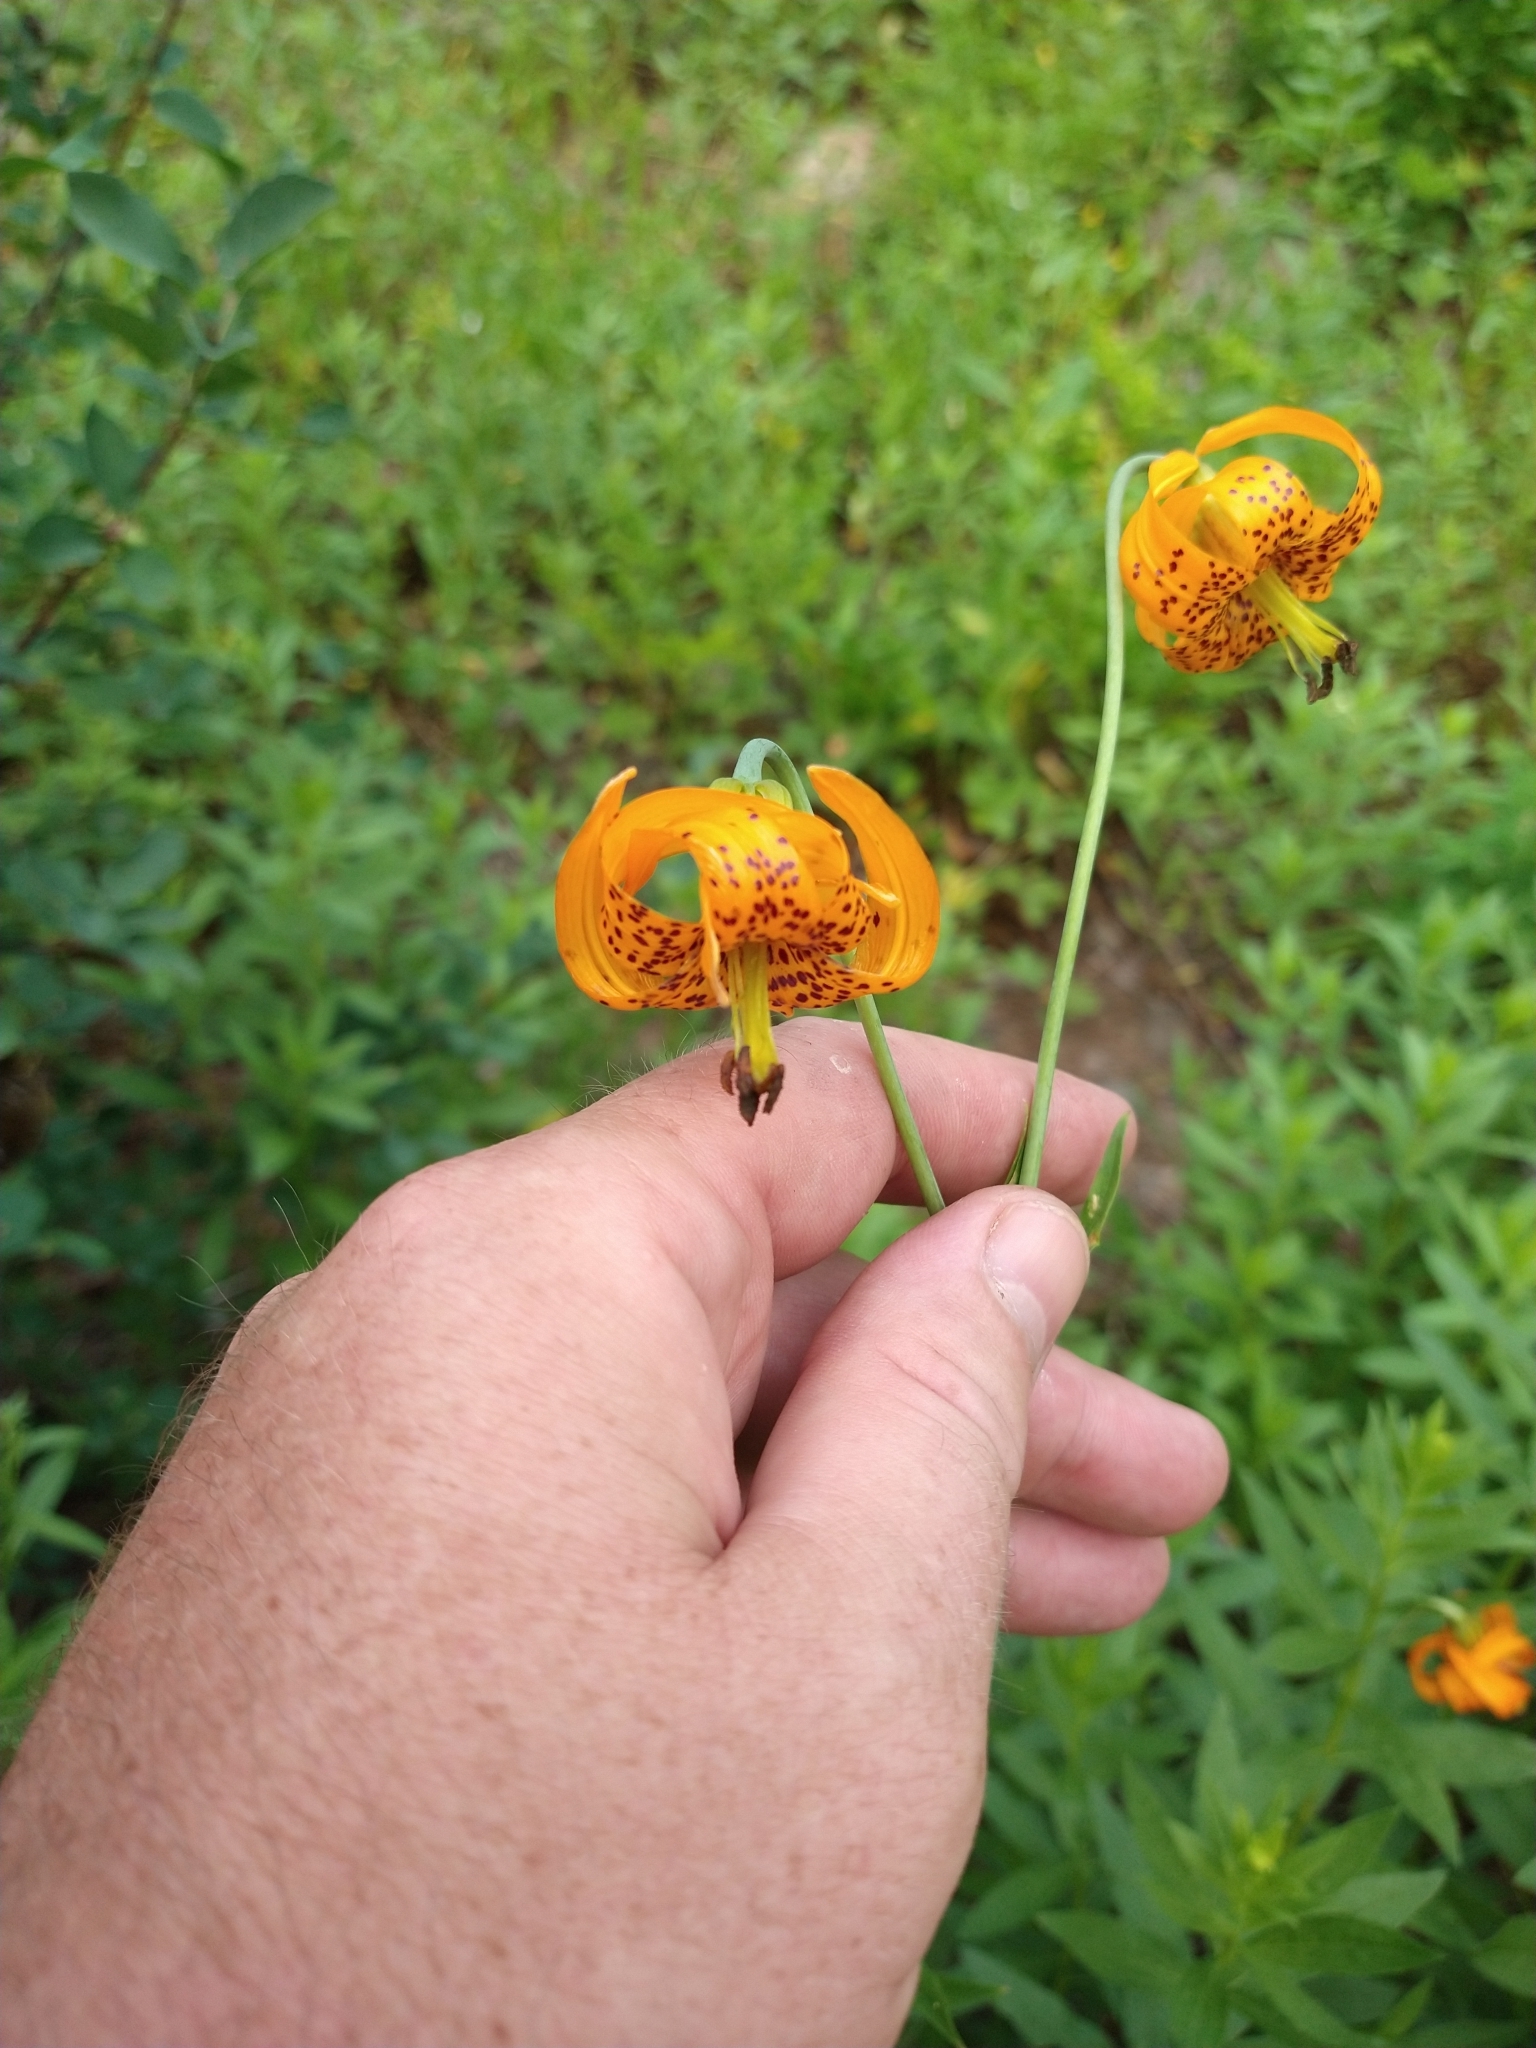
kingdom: Plantae
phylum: Tracheophyta
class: Liliopsida
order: Liliales
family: Liliaceae
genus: Lilium
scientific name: Lilium columbianum
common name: Columbia lily
